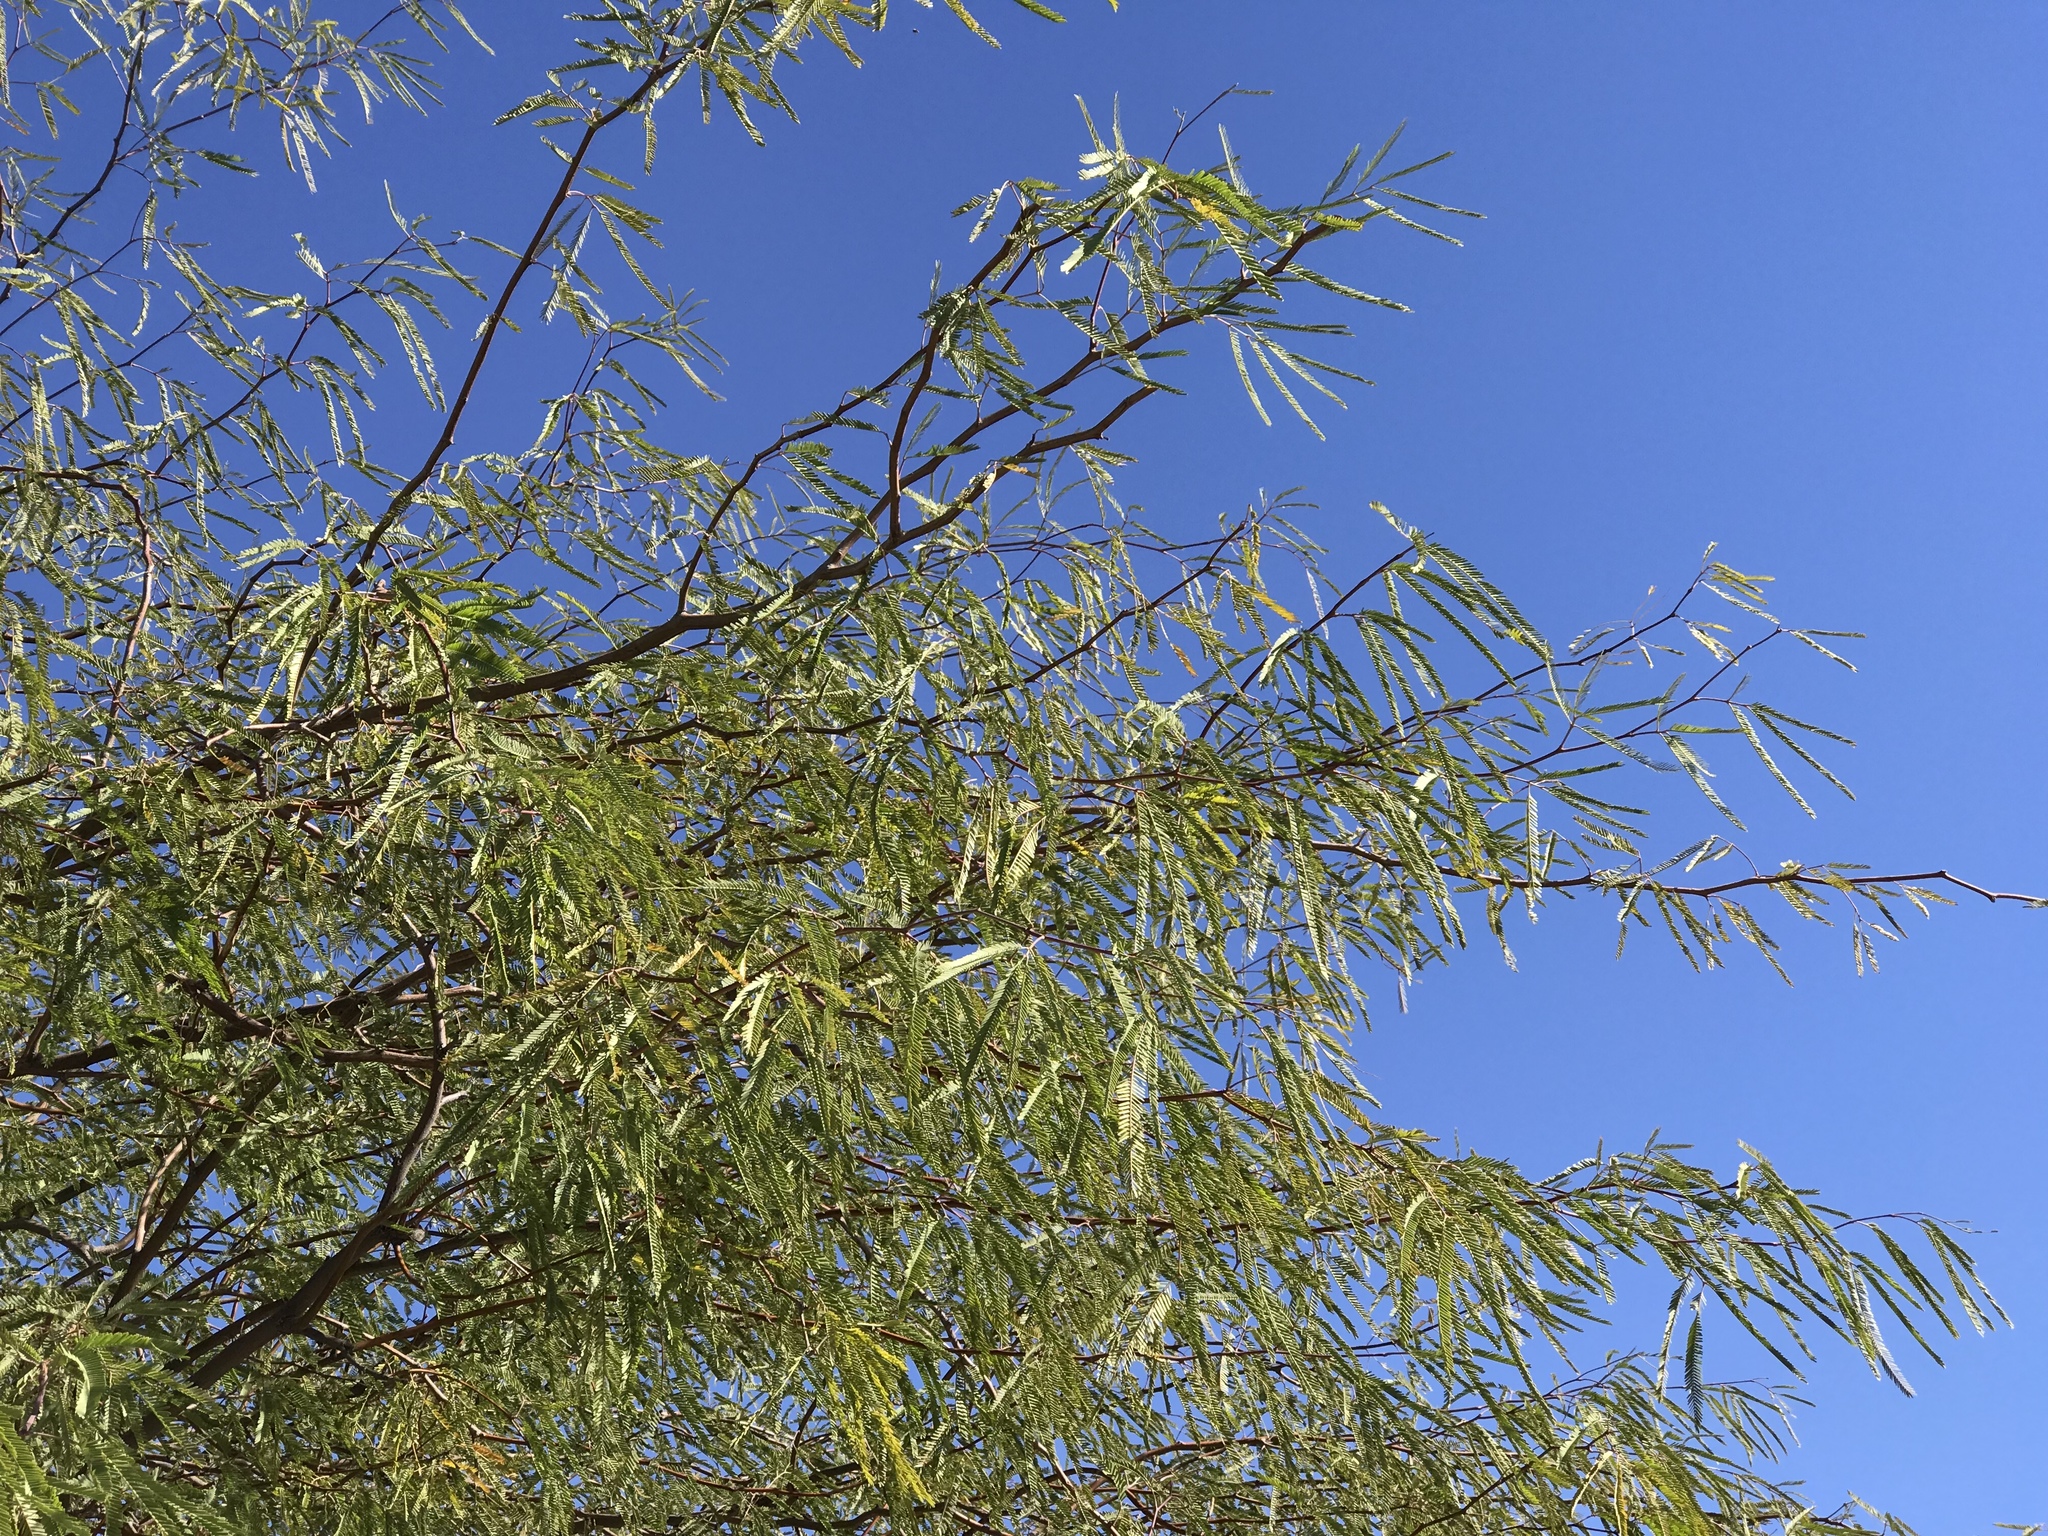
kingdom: Plantae
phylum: Tracheophyta
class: Magnoliopsida
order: Fabales
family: Fabaceae
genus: Prosopis
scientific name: Prosopis glandulosa
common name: Honey mesquite
